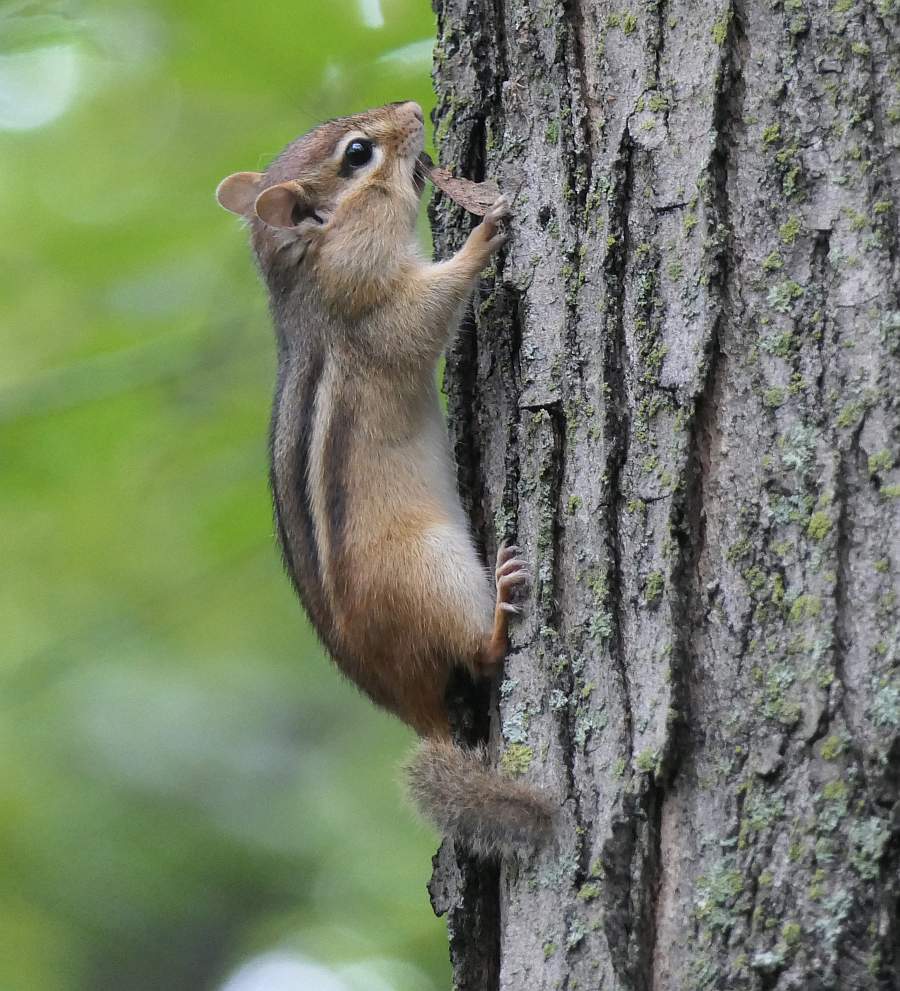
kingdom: Animalia
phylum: Chordata
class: Mammalia
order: Rodentia
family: Sciuridae
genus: Tamias
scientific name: Tamias striatus
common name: Eastern chipmunk
